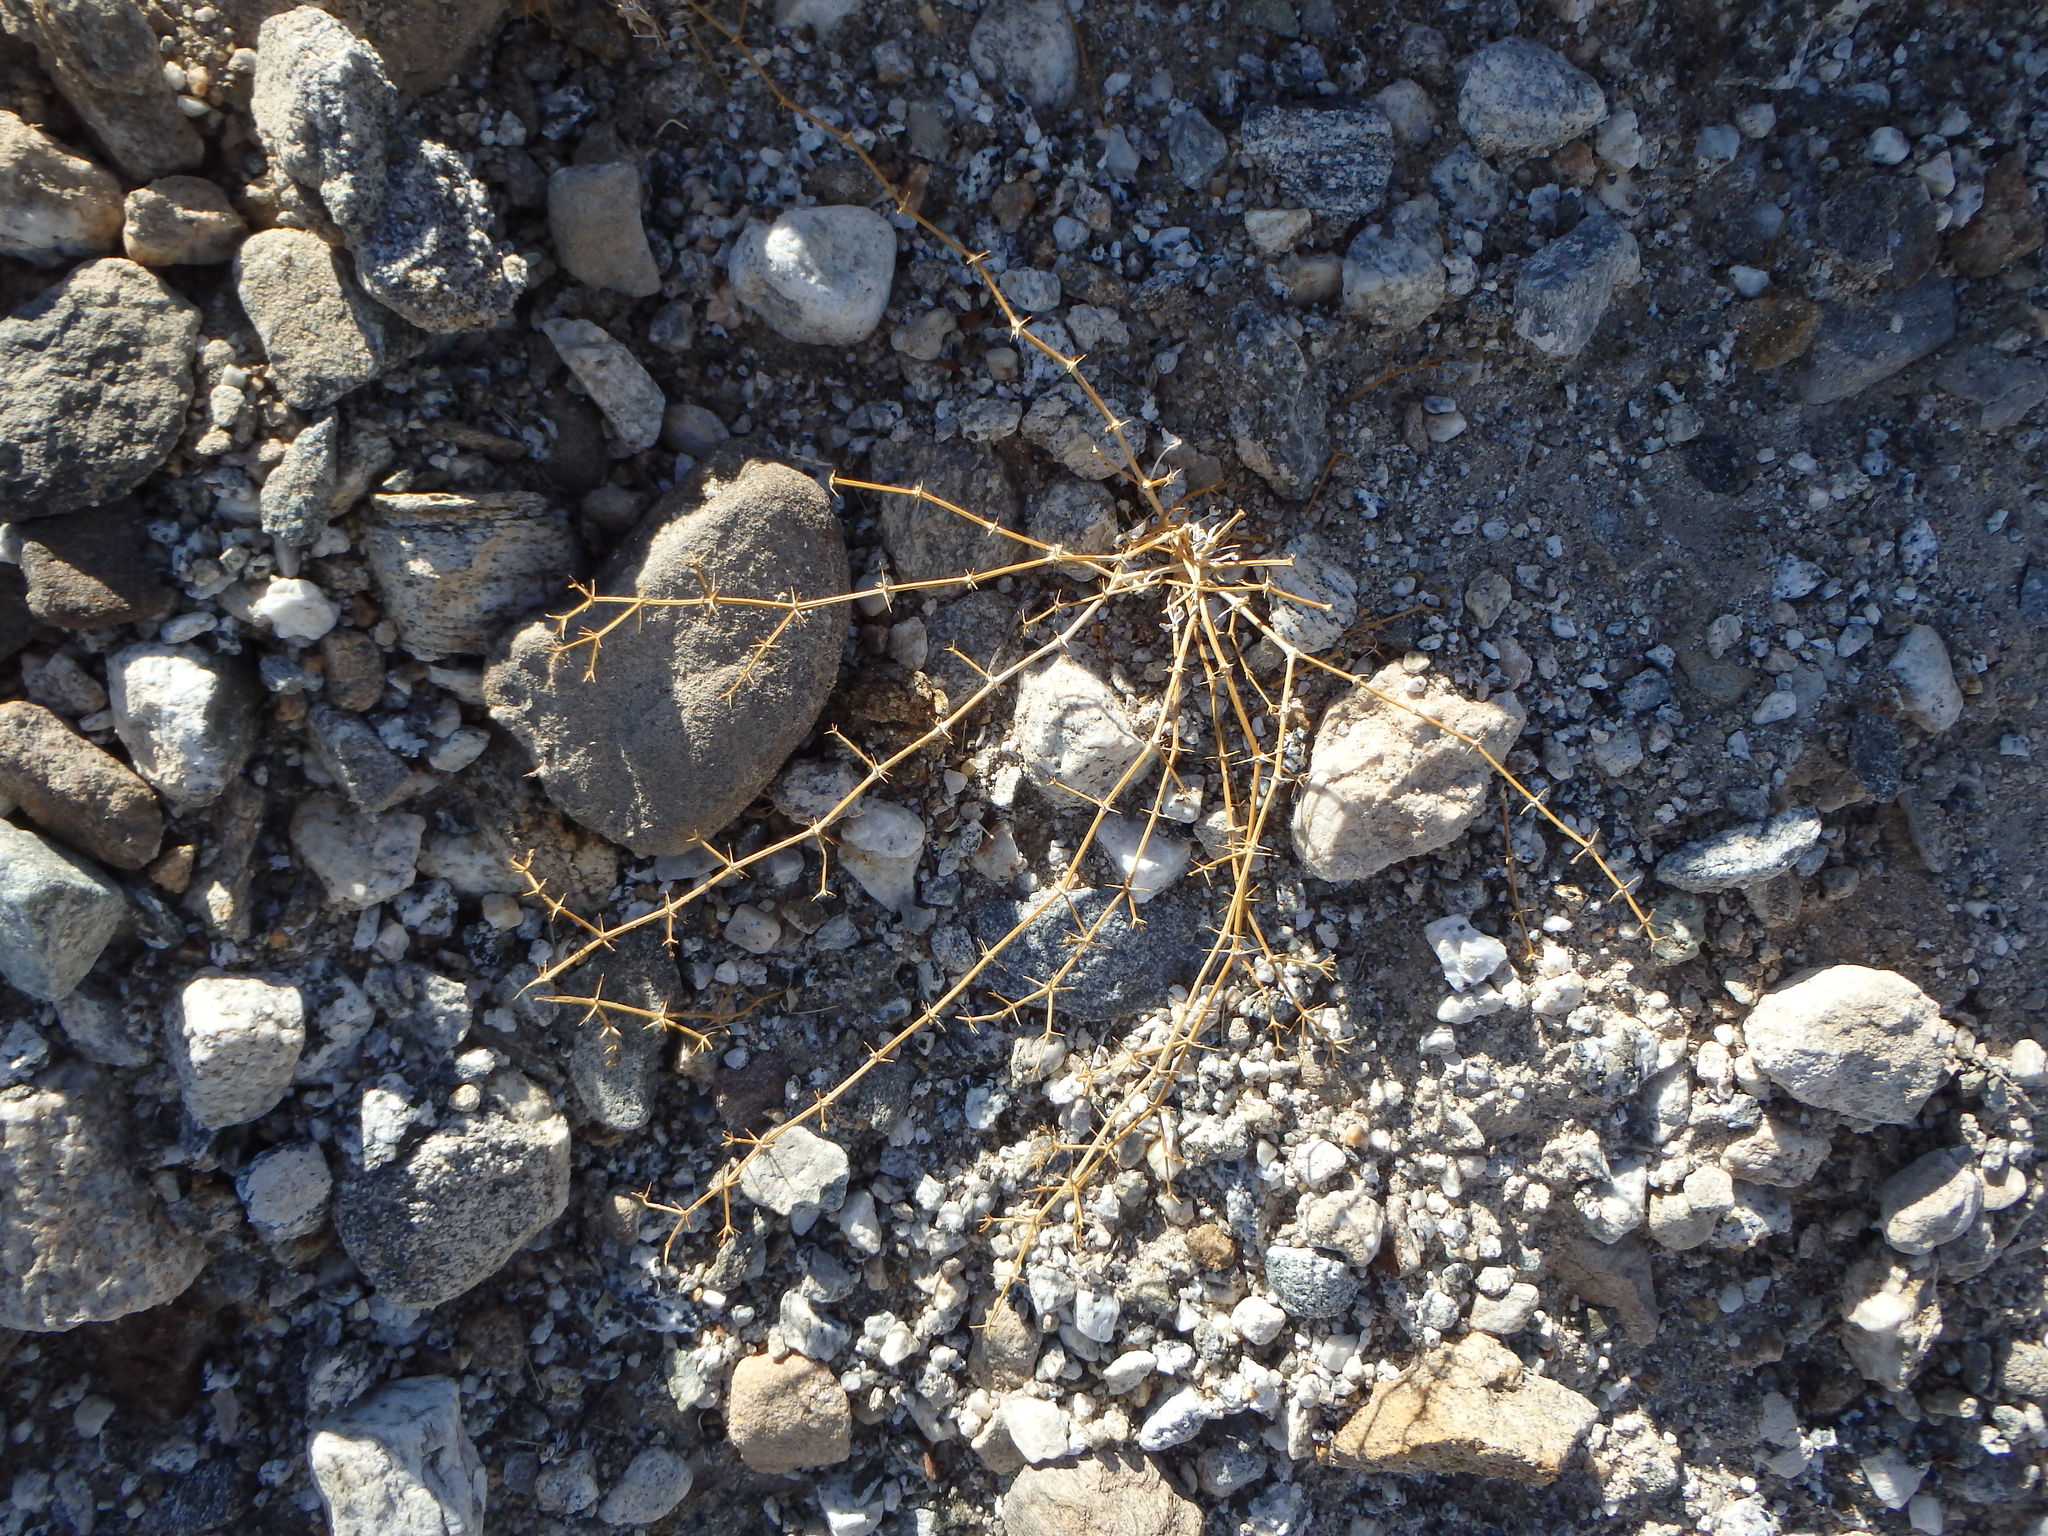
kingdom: Plantae
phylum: Tracheophyta
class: Magnoliopsida
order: Zygophyllales
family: Zygophyllaceae
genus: Fagonia
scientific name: Fagonia laevis
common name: California fagonbush
